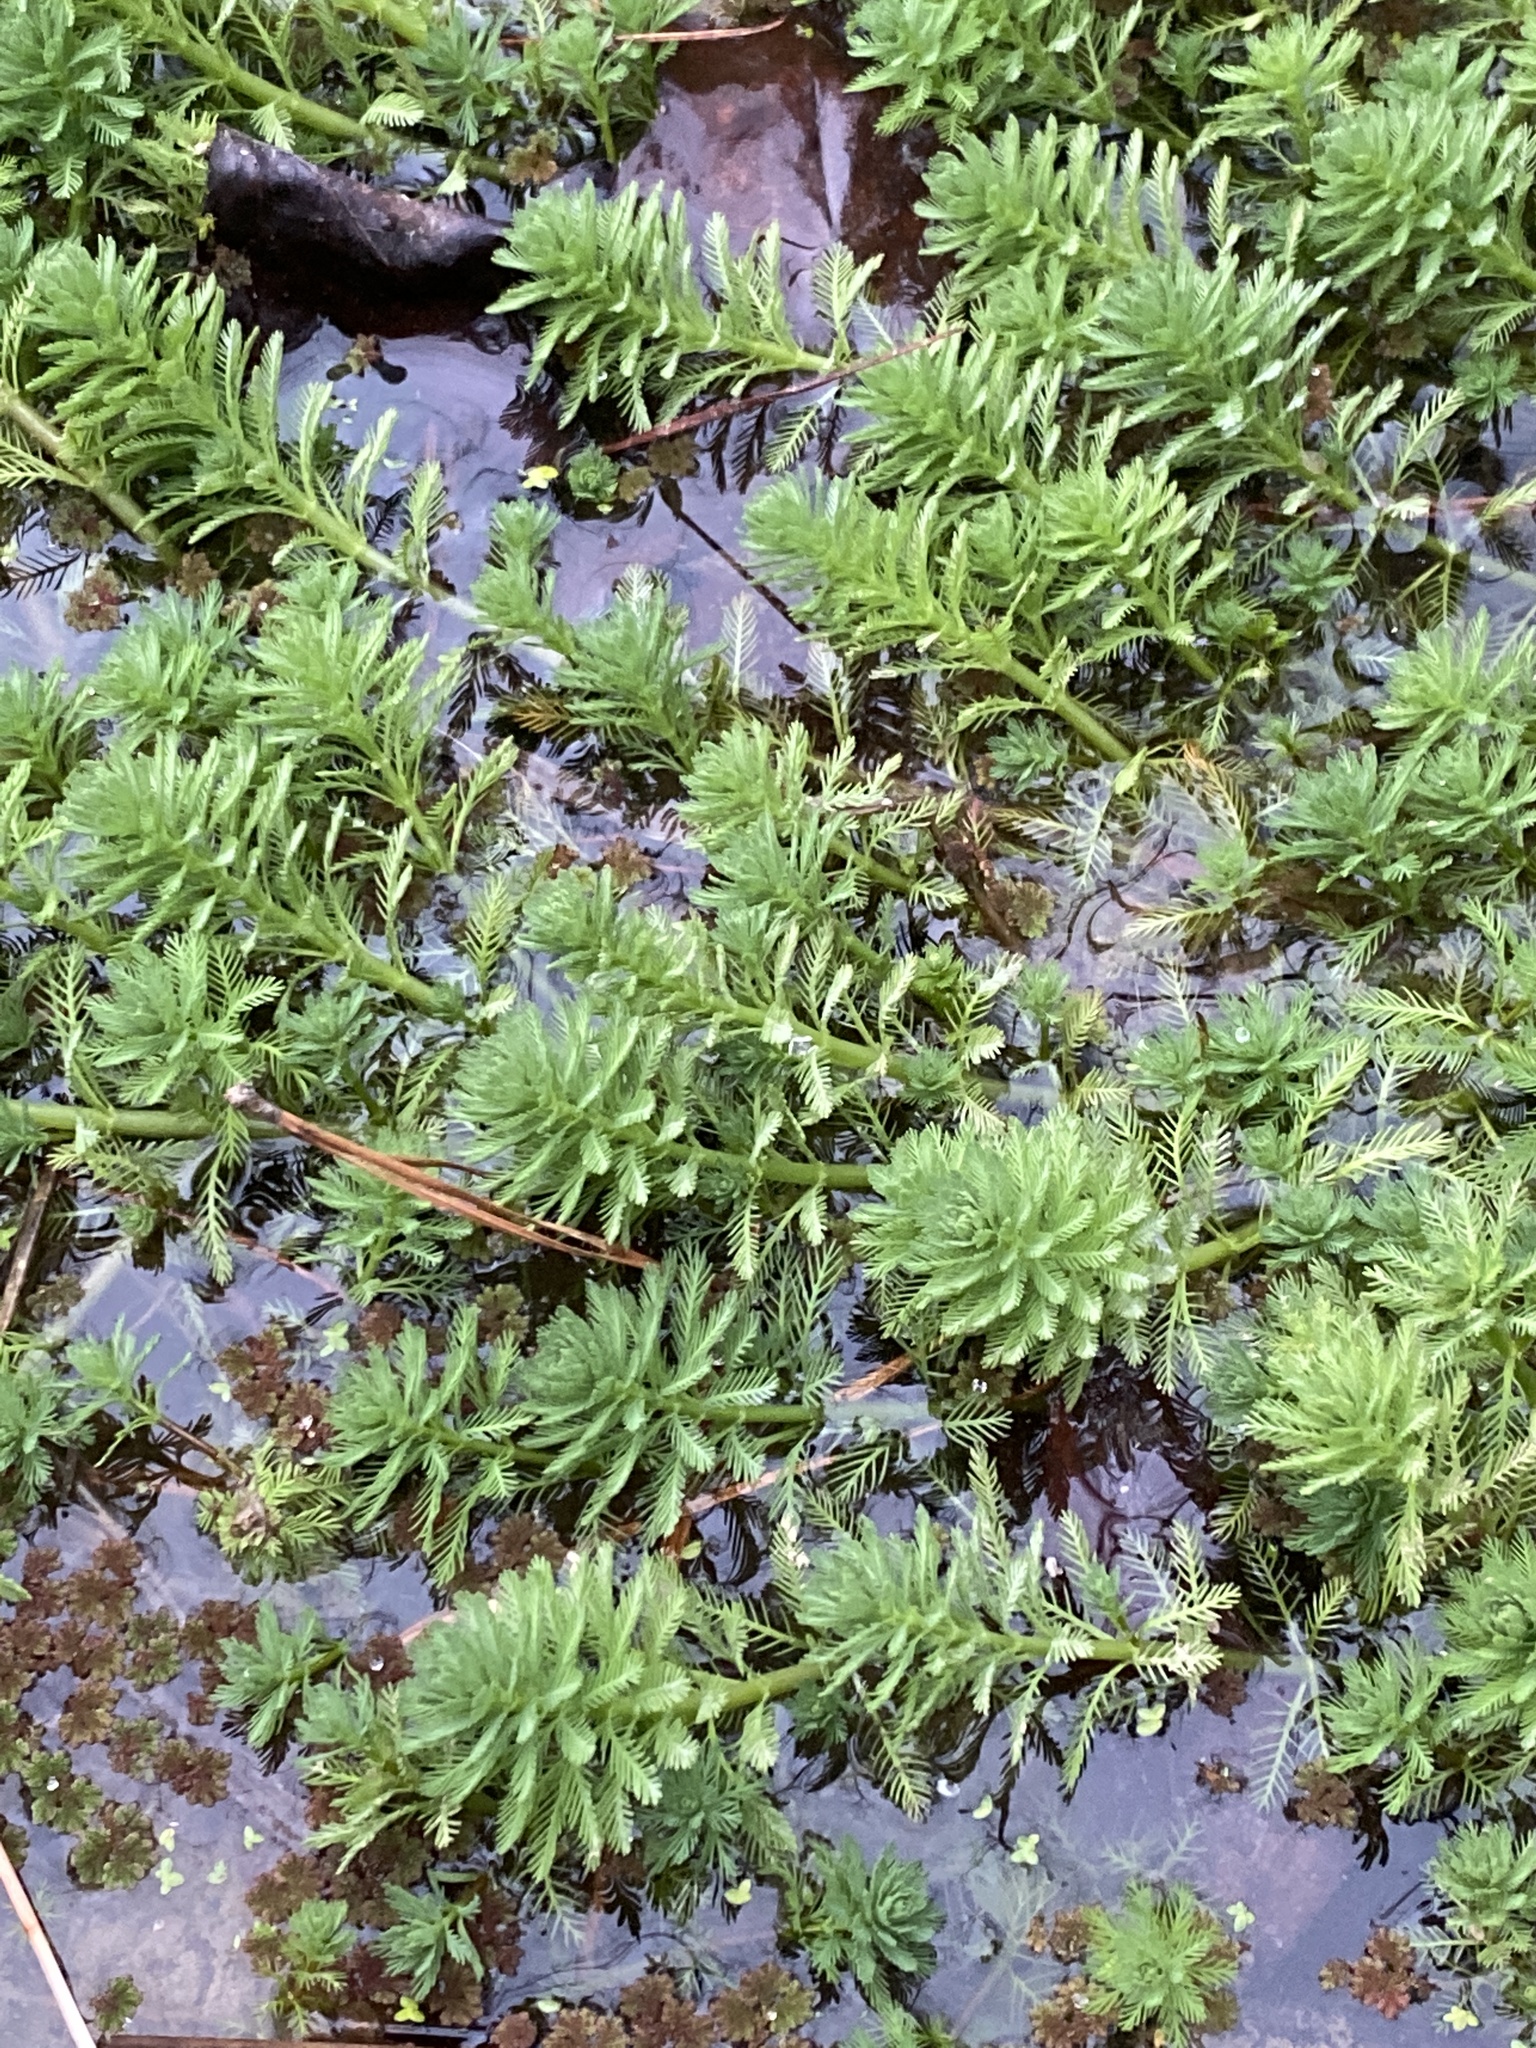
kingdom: Plantae
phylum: Tracheophyta
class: Magnoliopsida
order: Saxifragales
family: Haloragaceae
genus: Myriophyllum
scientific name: Myriophyllum aquaticum
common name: Parrot's feather
